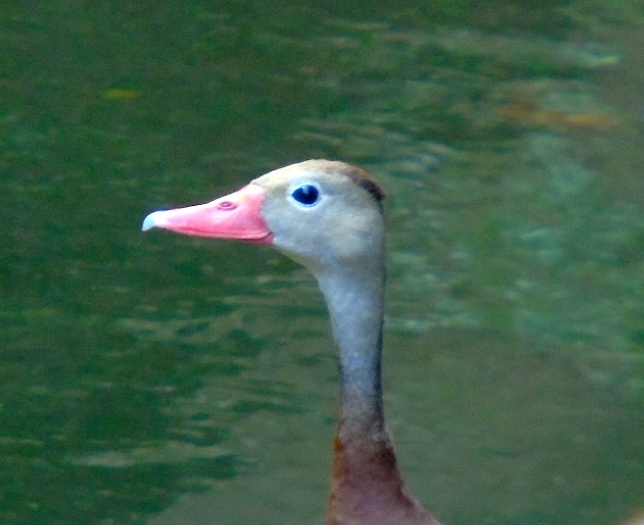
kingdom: Animalia
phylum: Chordata
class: Aves
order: Anseriformes
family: Anatidae
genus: Dendrocygna
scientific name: Dendrocygna autumnalis
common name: Black-bellied whistling duck
